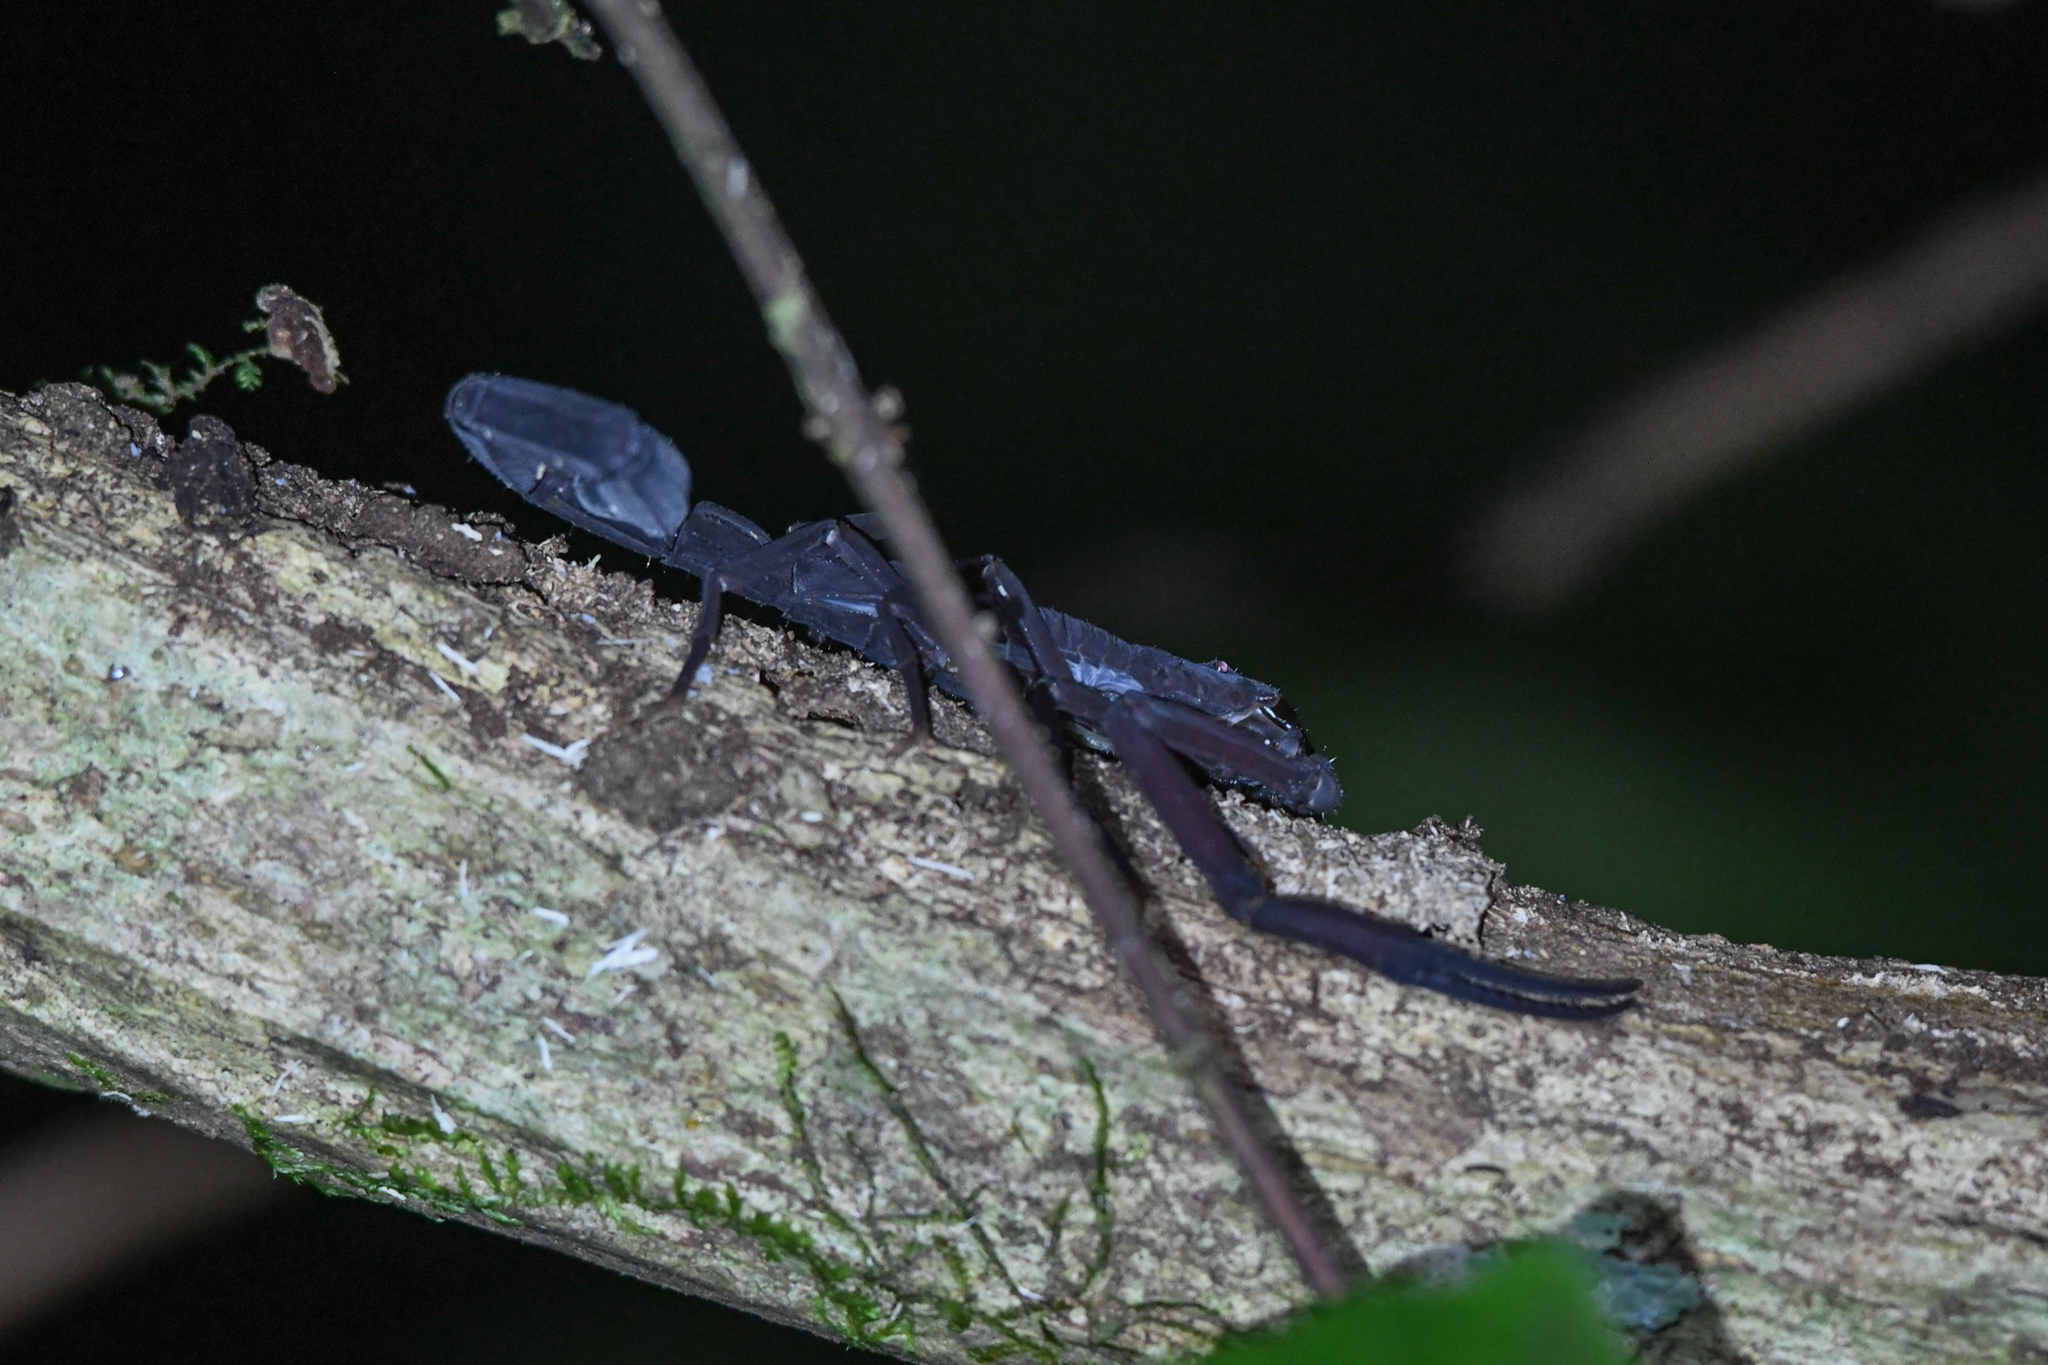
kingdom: Animalia
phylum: Arthropoda
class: Arachnida
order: Scorpiones
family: Buthidae
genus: Tityus
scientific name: Tityus dedoslargos
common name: Scorpions
